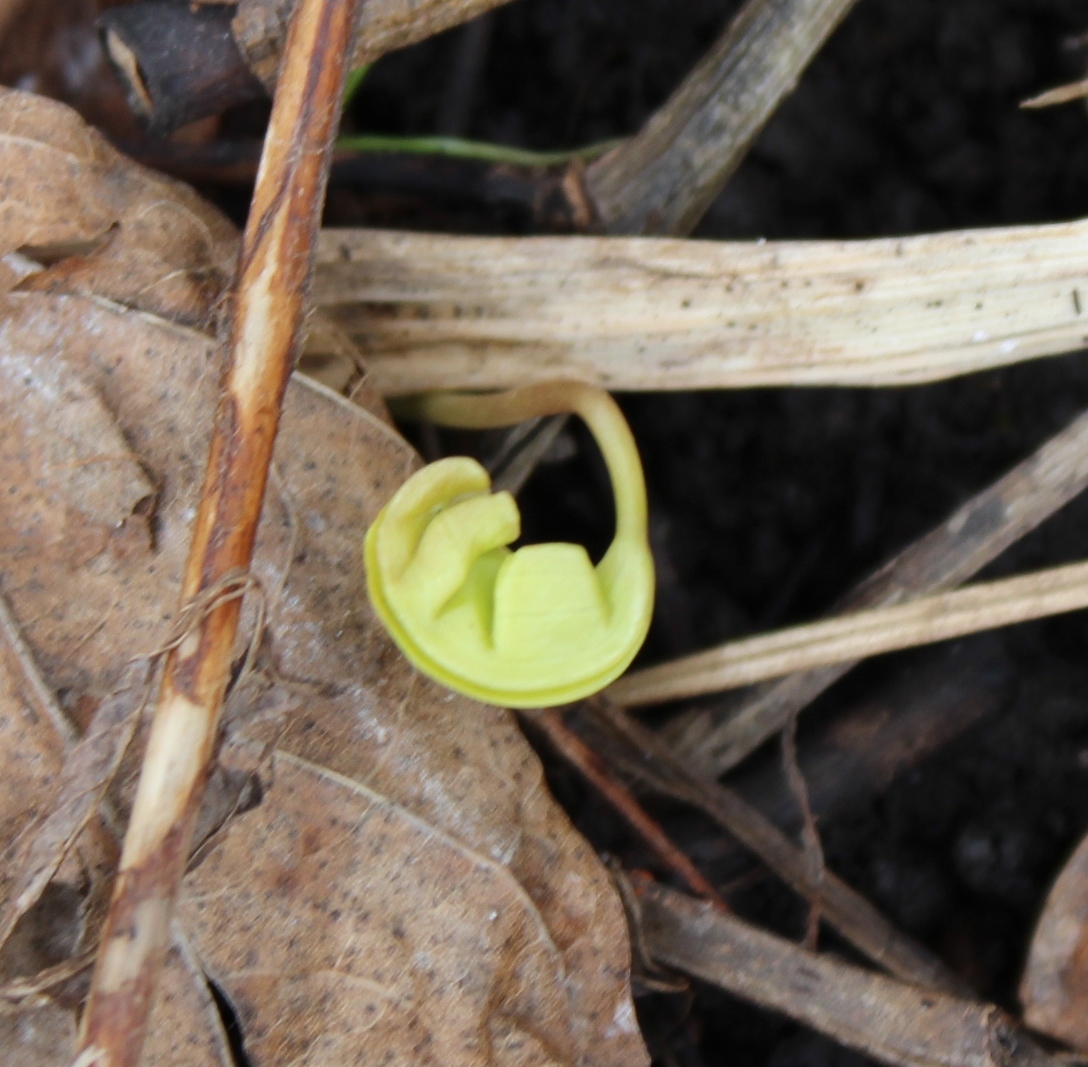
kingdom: Plantae
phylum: Tracheophyta
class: Magnoliopsida
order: Sapindales
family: Sapindaceae
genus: Acer
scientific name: Acer platanoides
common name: Norway maple
